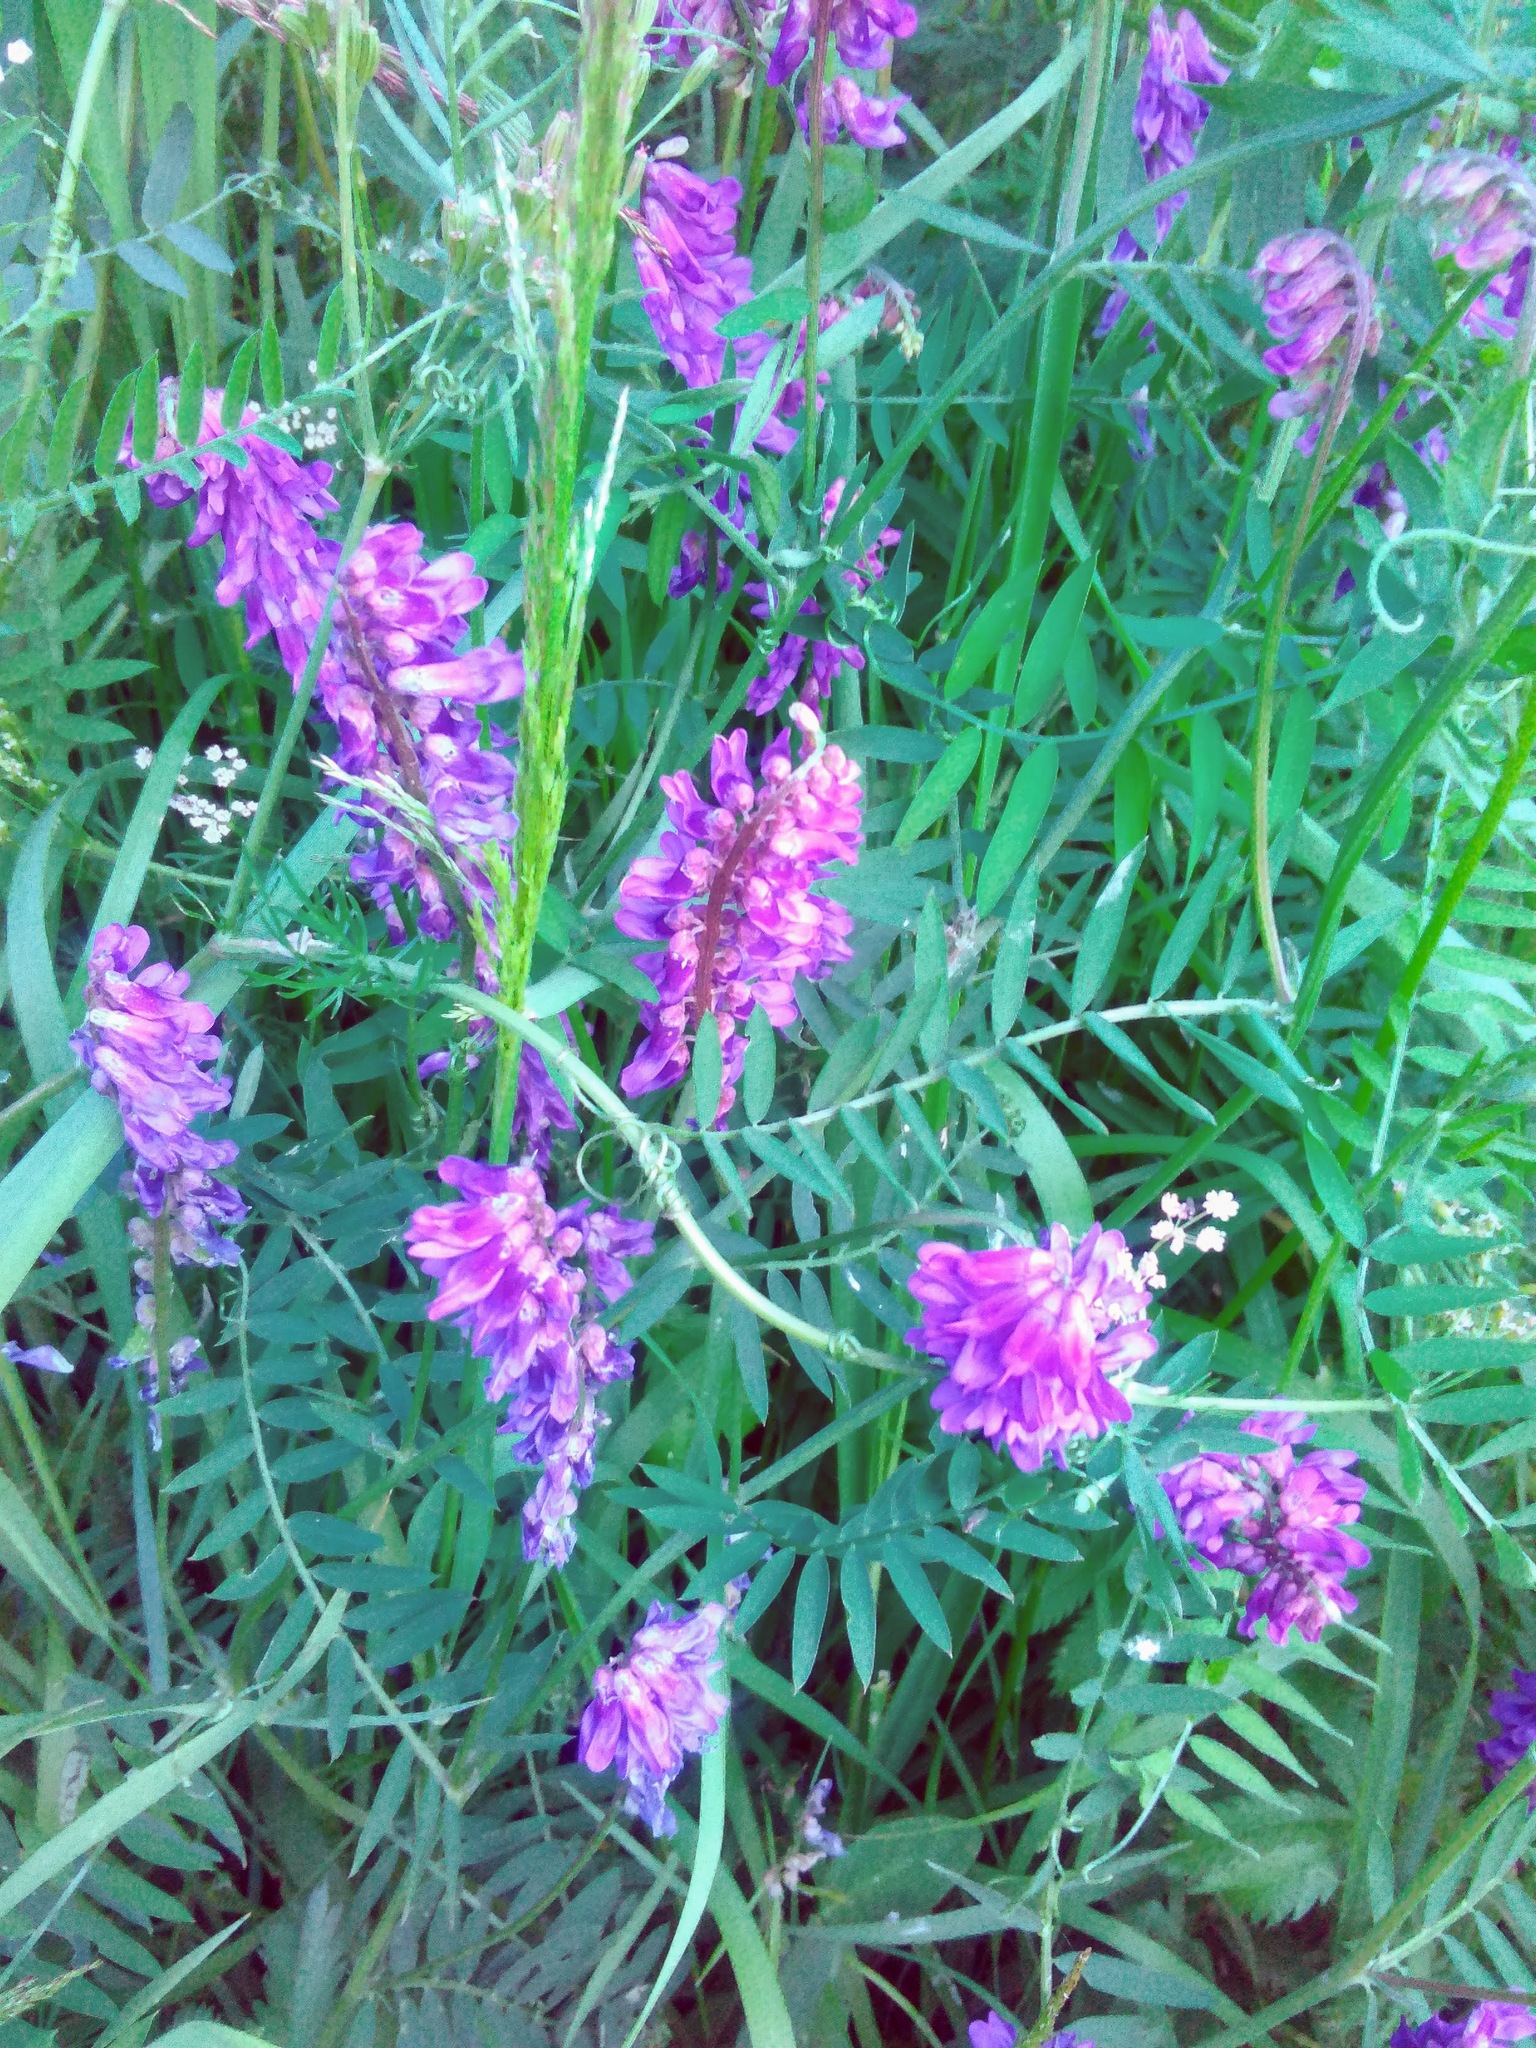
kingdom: Plantae
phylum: Tracheophyta
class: Magnoliopsida
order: Fabales
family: Fabaceae
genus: Vicia
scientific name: Vicia cracca
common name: Bird vetch
